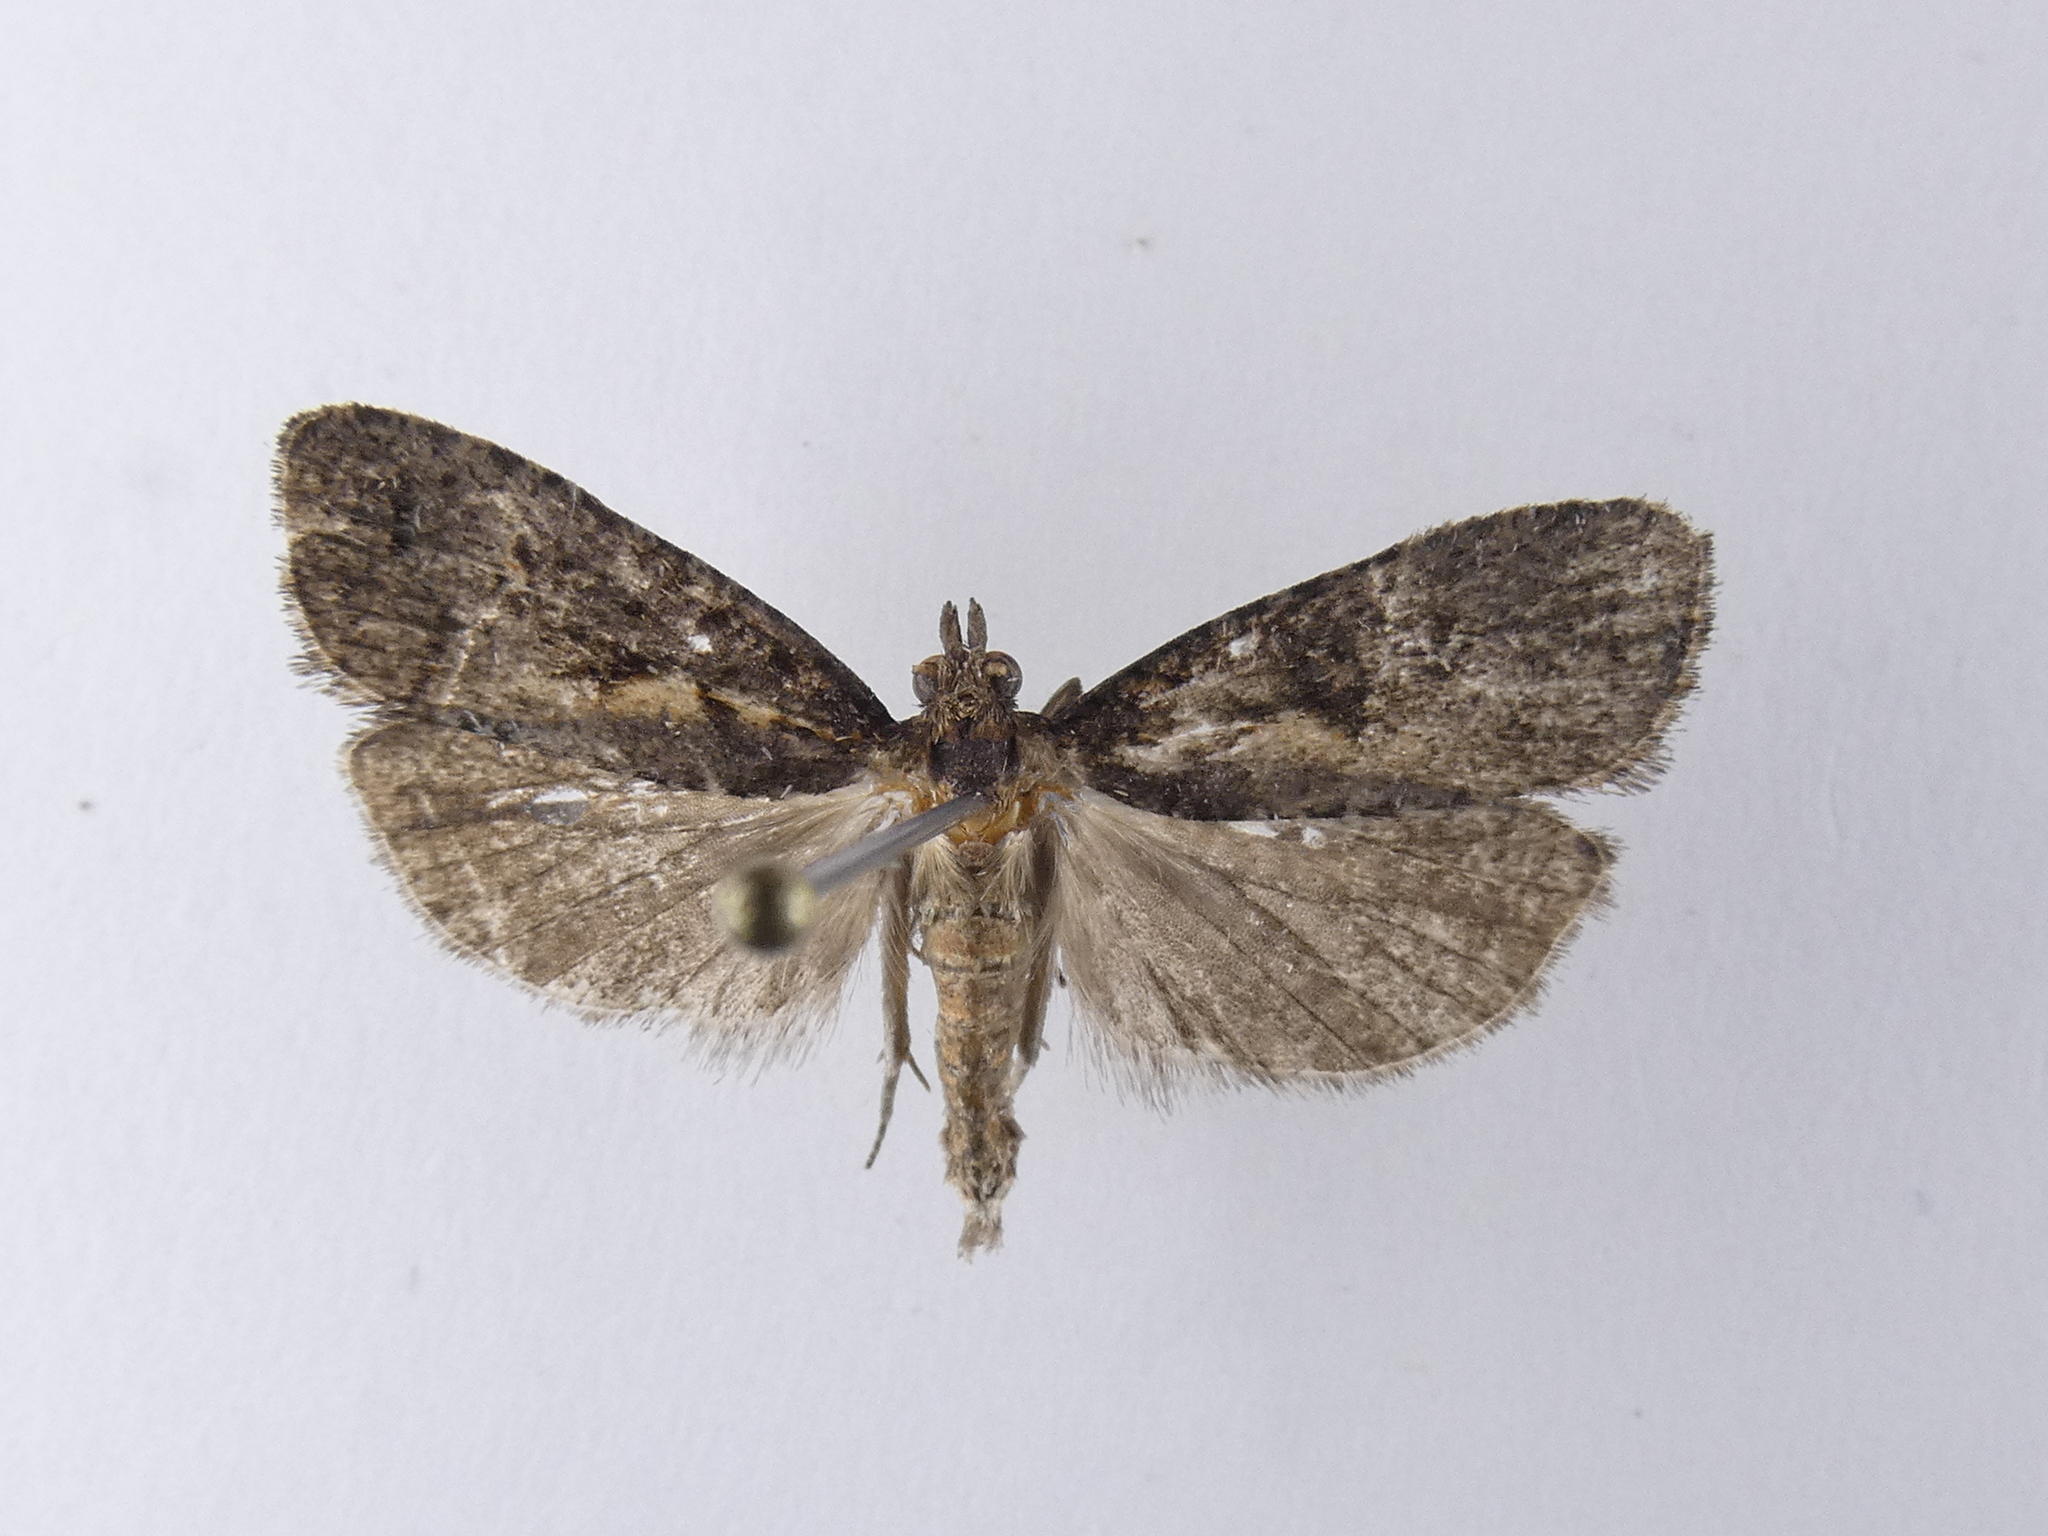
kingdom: Animalia
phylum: Arthropoda
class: Insecta
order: Lepidoptera
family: Tortricidae
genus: Cryptaspasma
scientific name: Cryptaspasma querula
